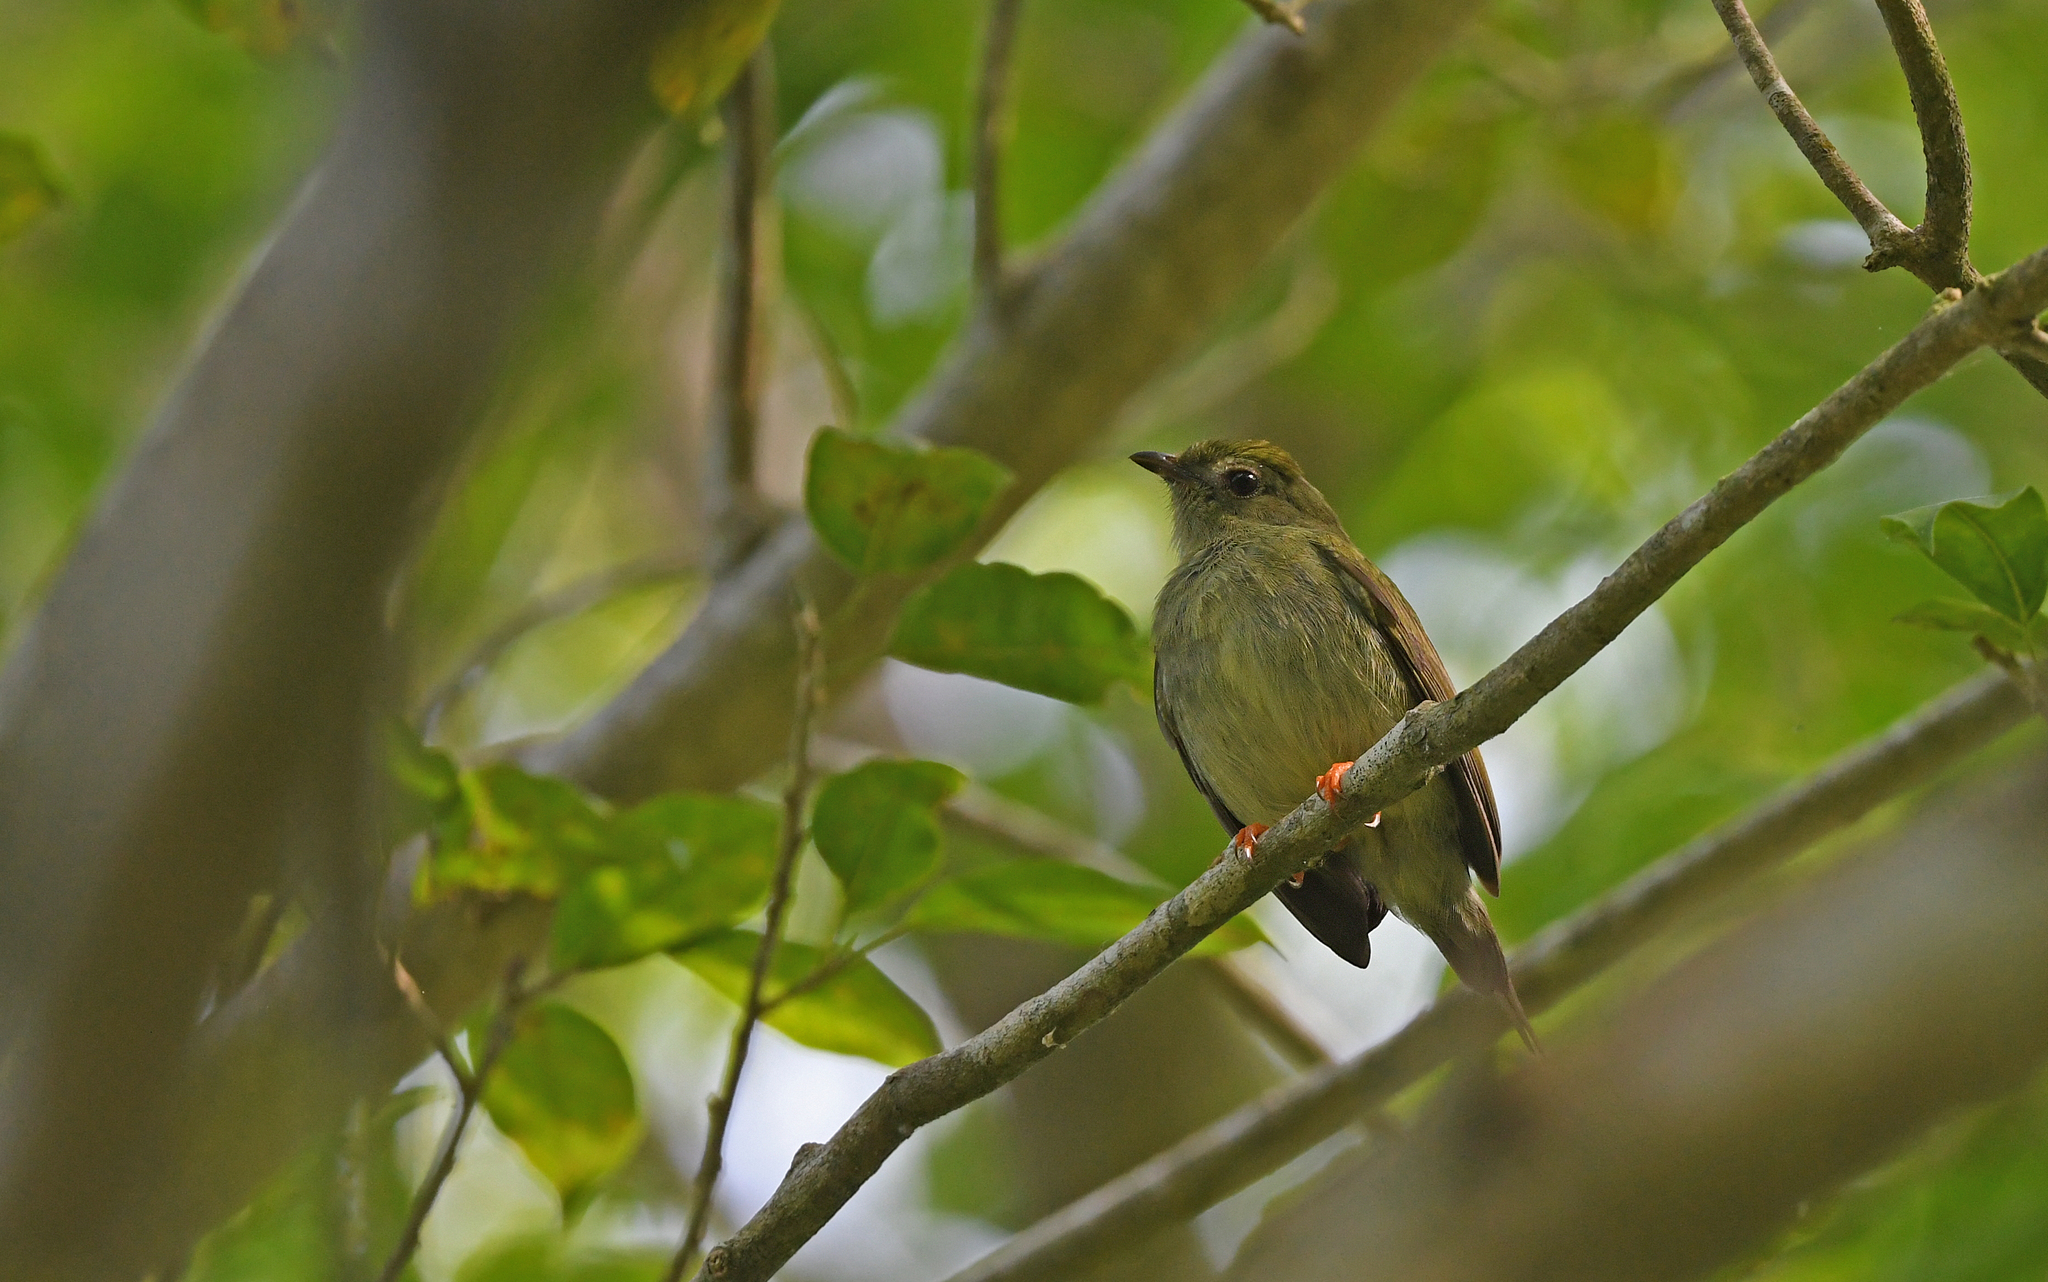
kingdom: Animalia
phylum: Chordata
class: Aves
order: Passeriformes
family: Pipridae
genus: Chiroxiphia
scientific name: Chiroxiphia lanceolata
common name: Lance-tailed manakin
